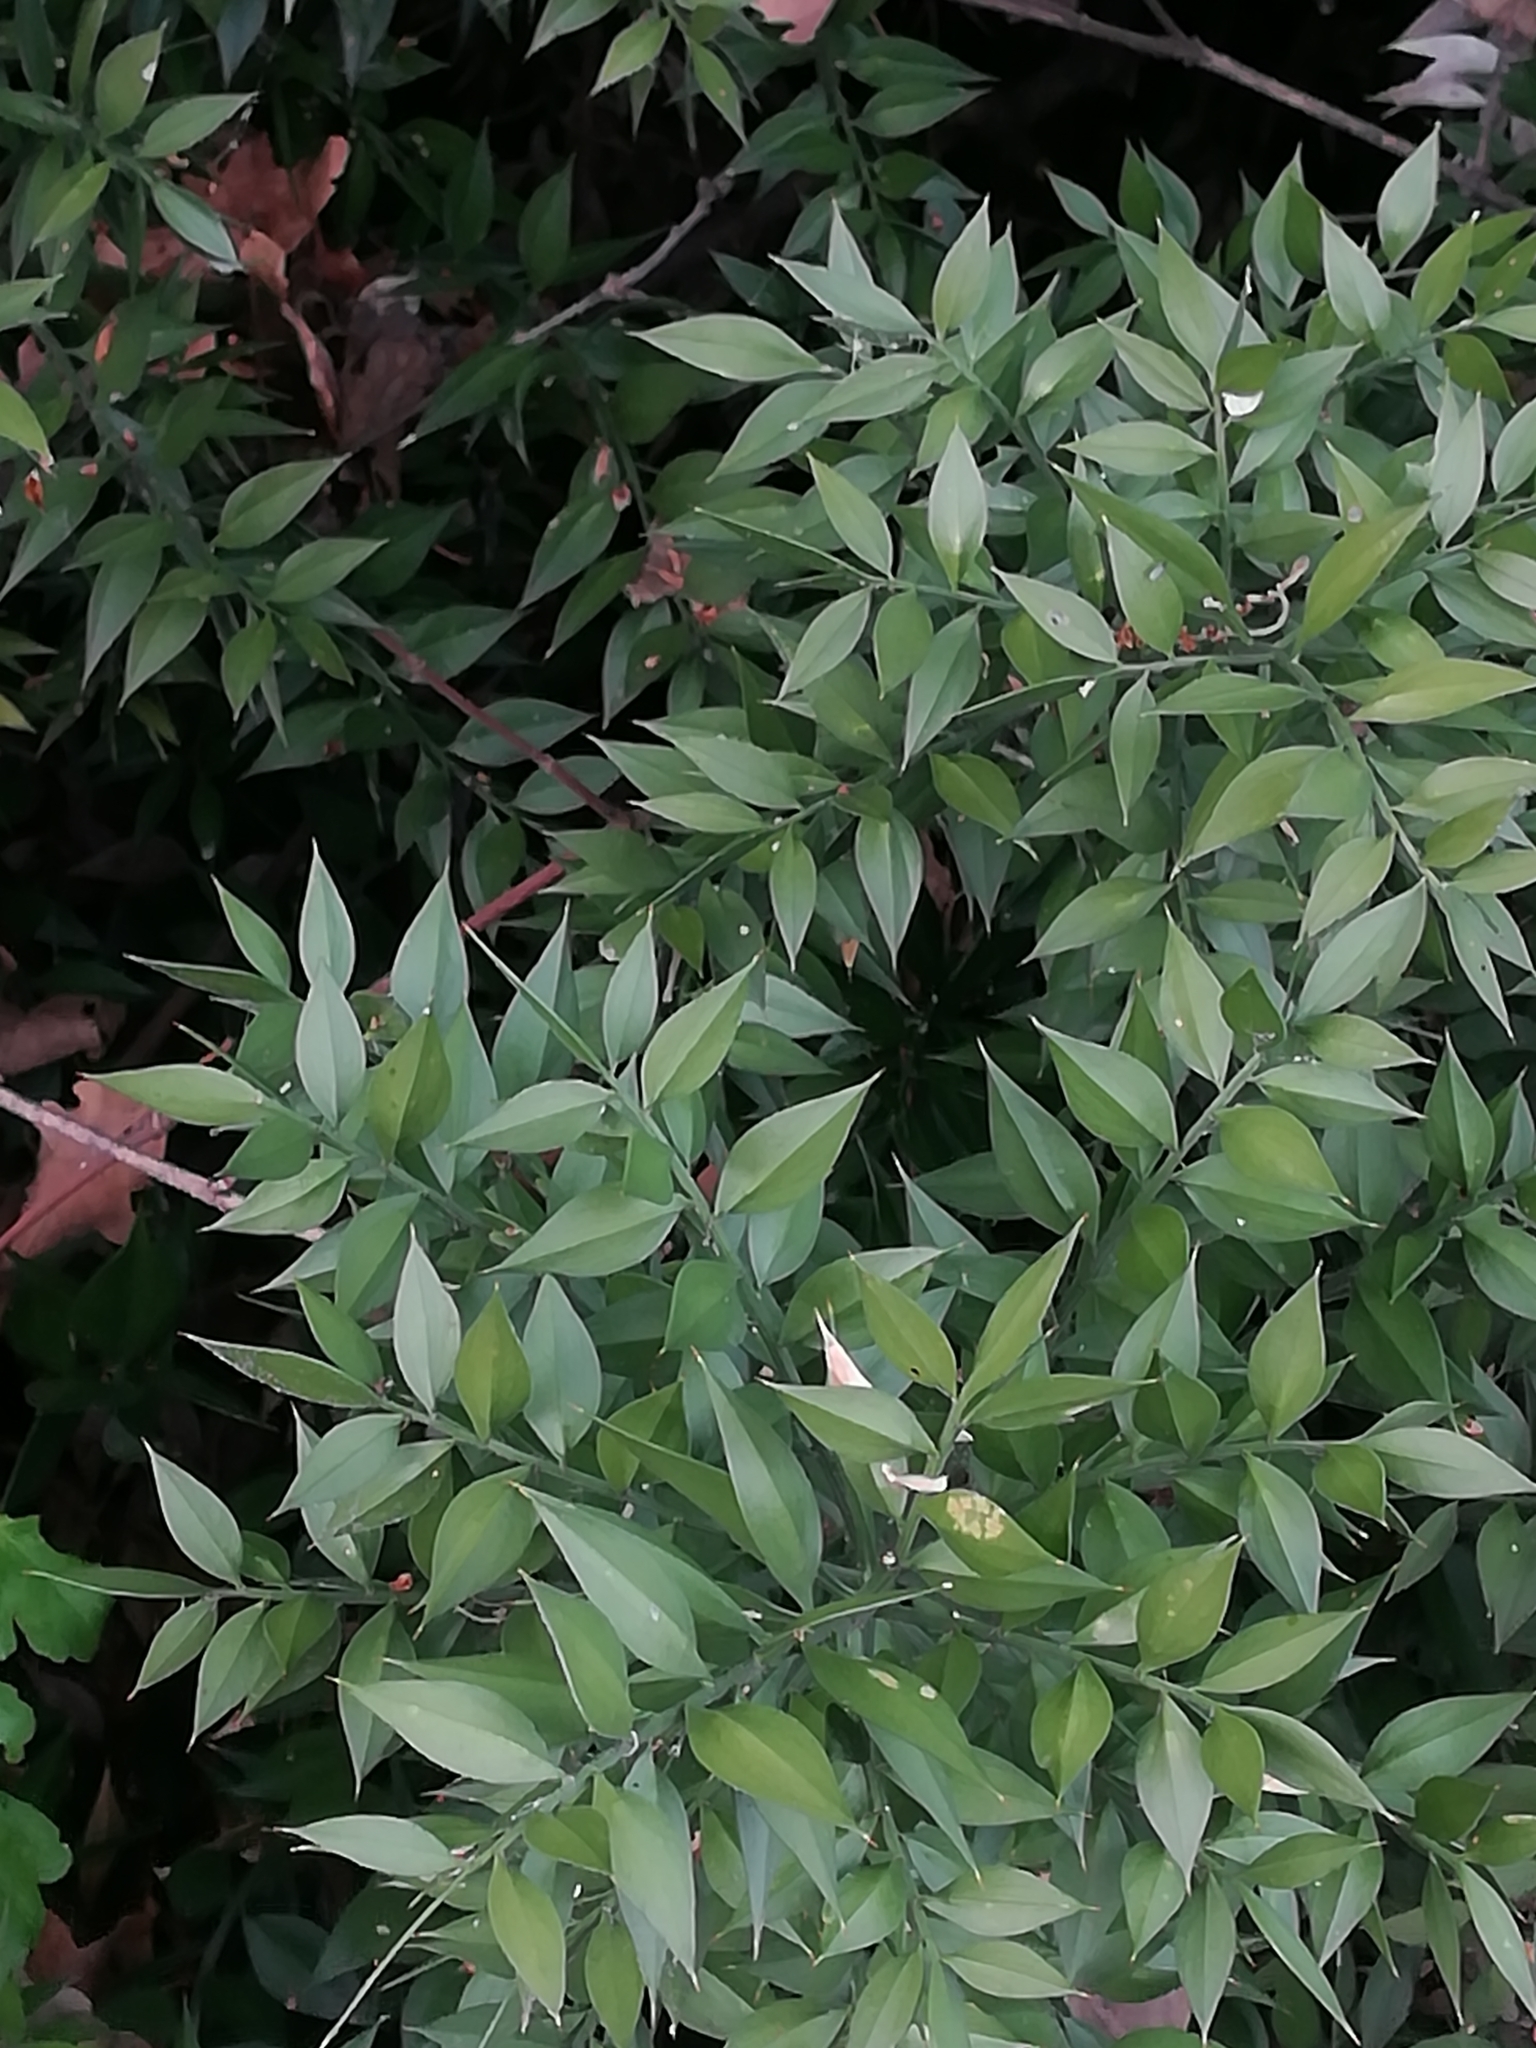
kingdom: Plantae
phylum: Tracheophyta
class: Liliopsida
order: Asparagales
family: Asparagaceae
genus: Ruscus
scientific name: Ruscus aculeatus
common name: Butcher's-broom
